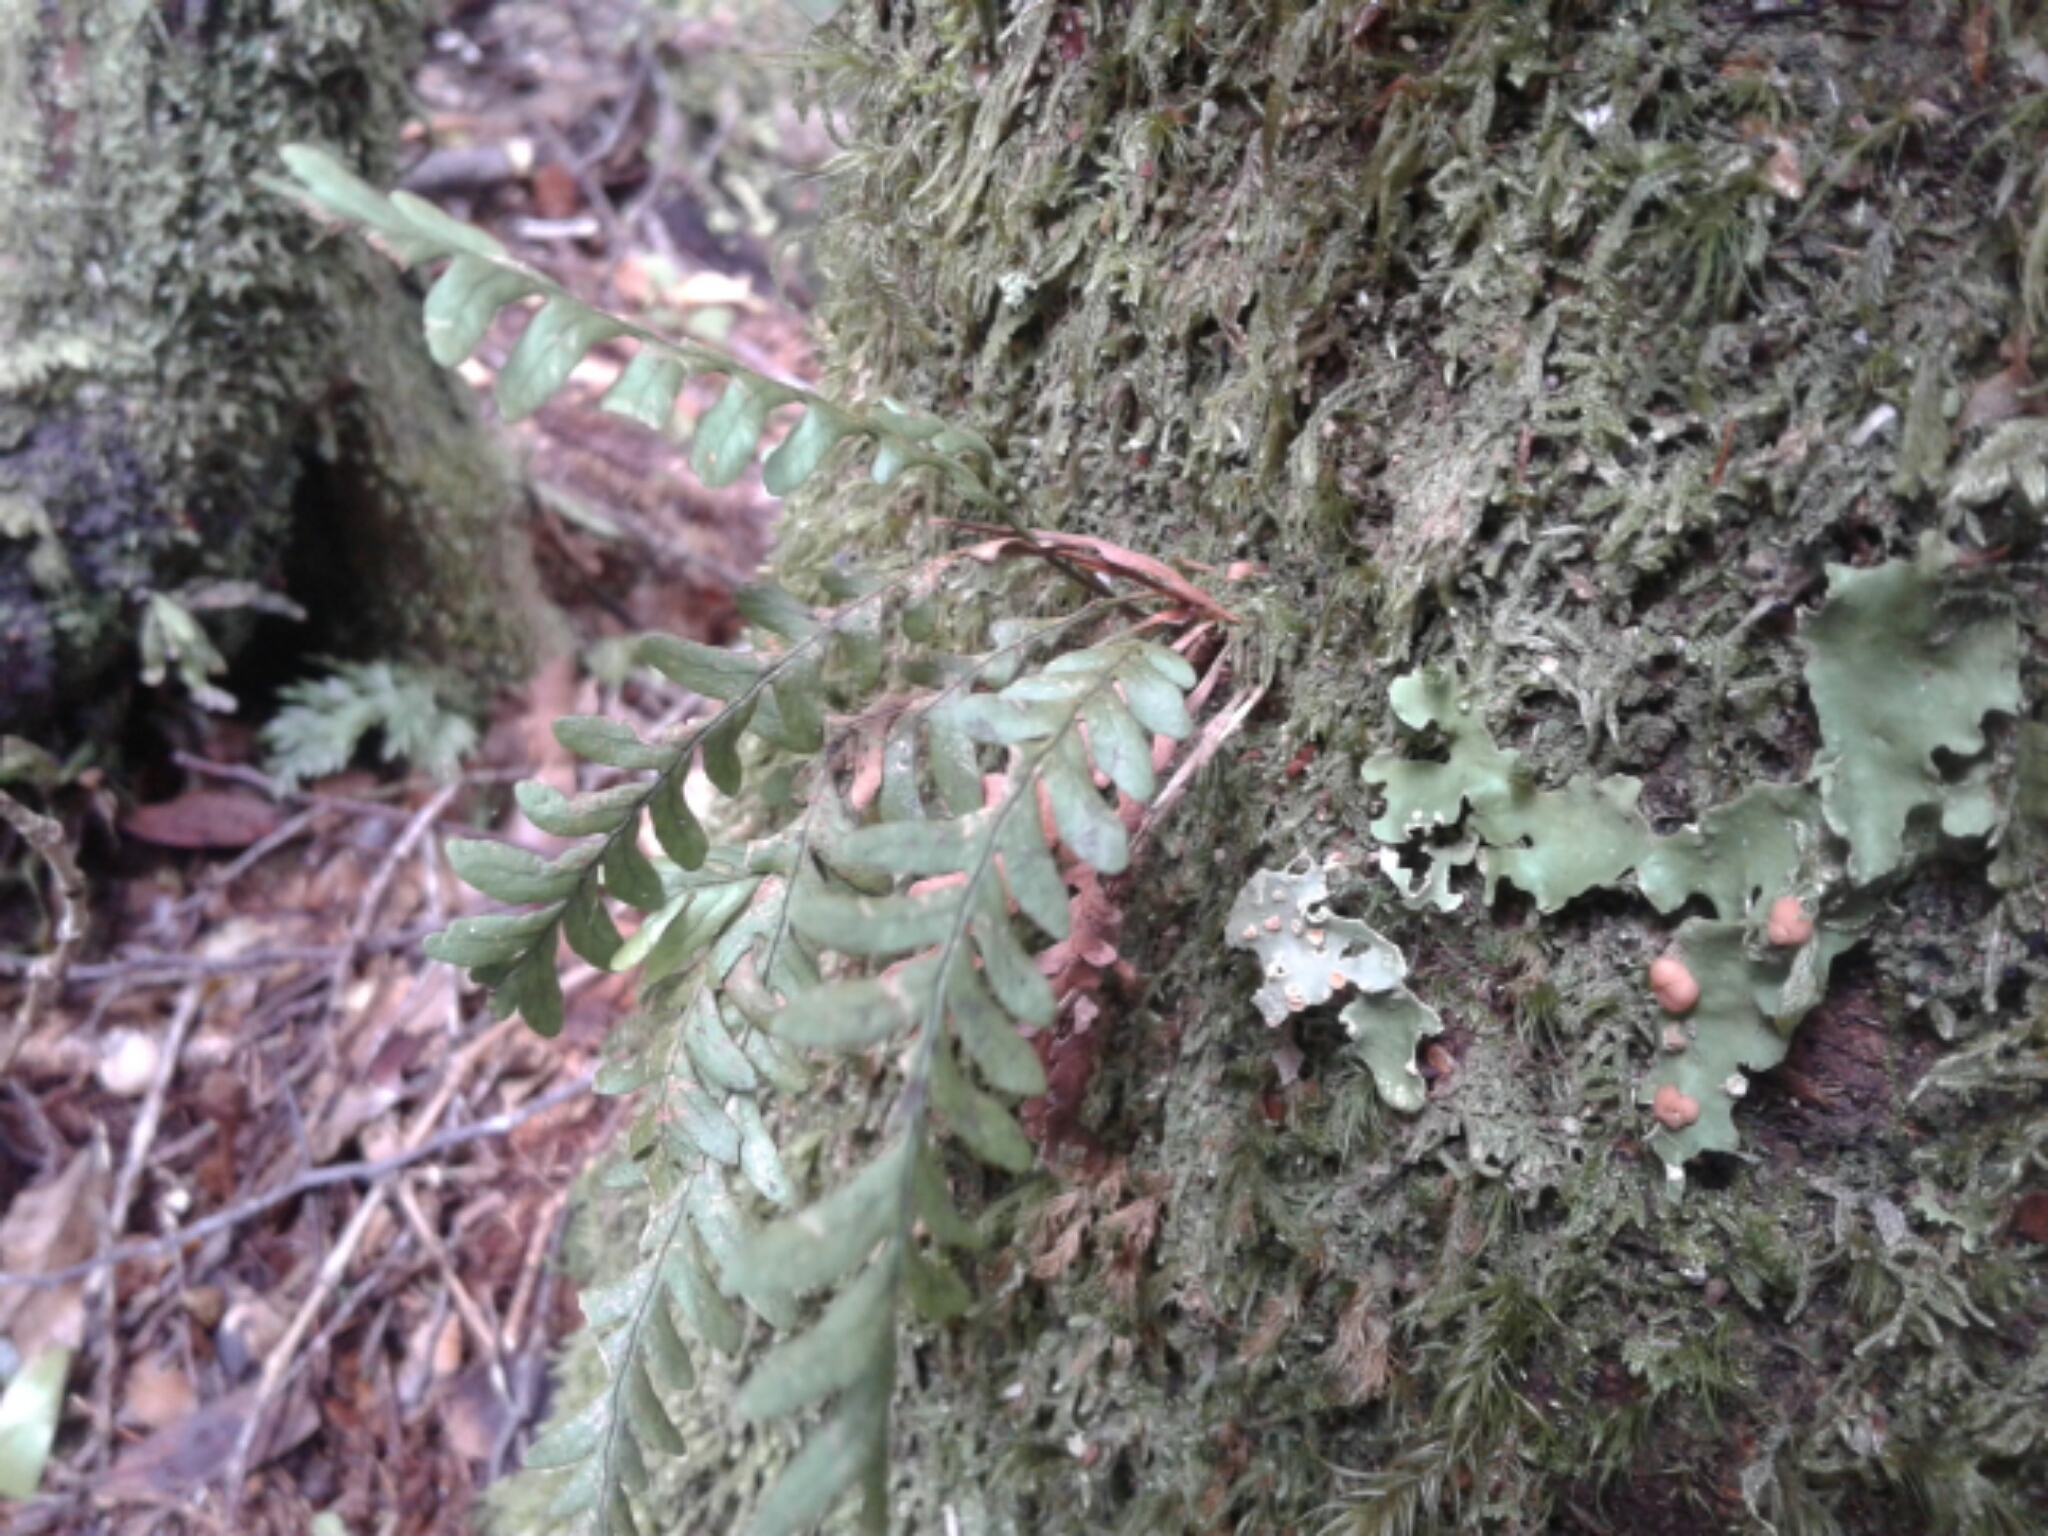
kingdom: Plantae
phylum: Tracheophyta
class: Polypodiopsida
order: Polypodiales
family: Polypodiaceae
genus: Notogrammitis
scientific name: Notogrammitis heterophylla
